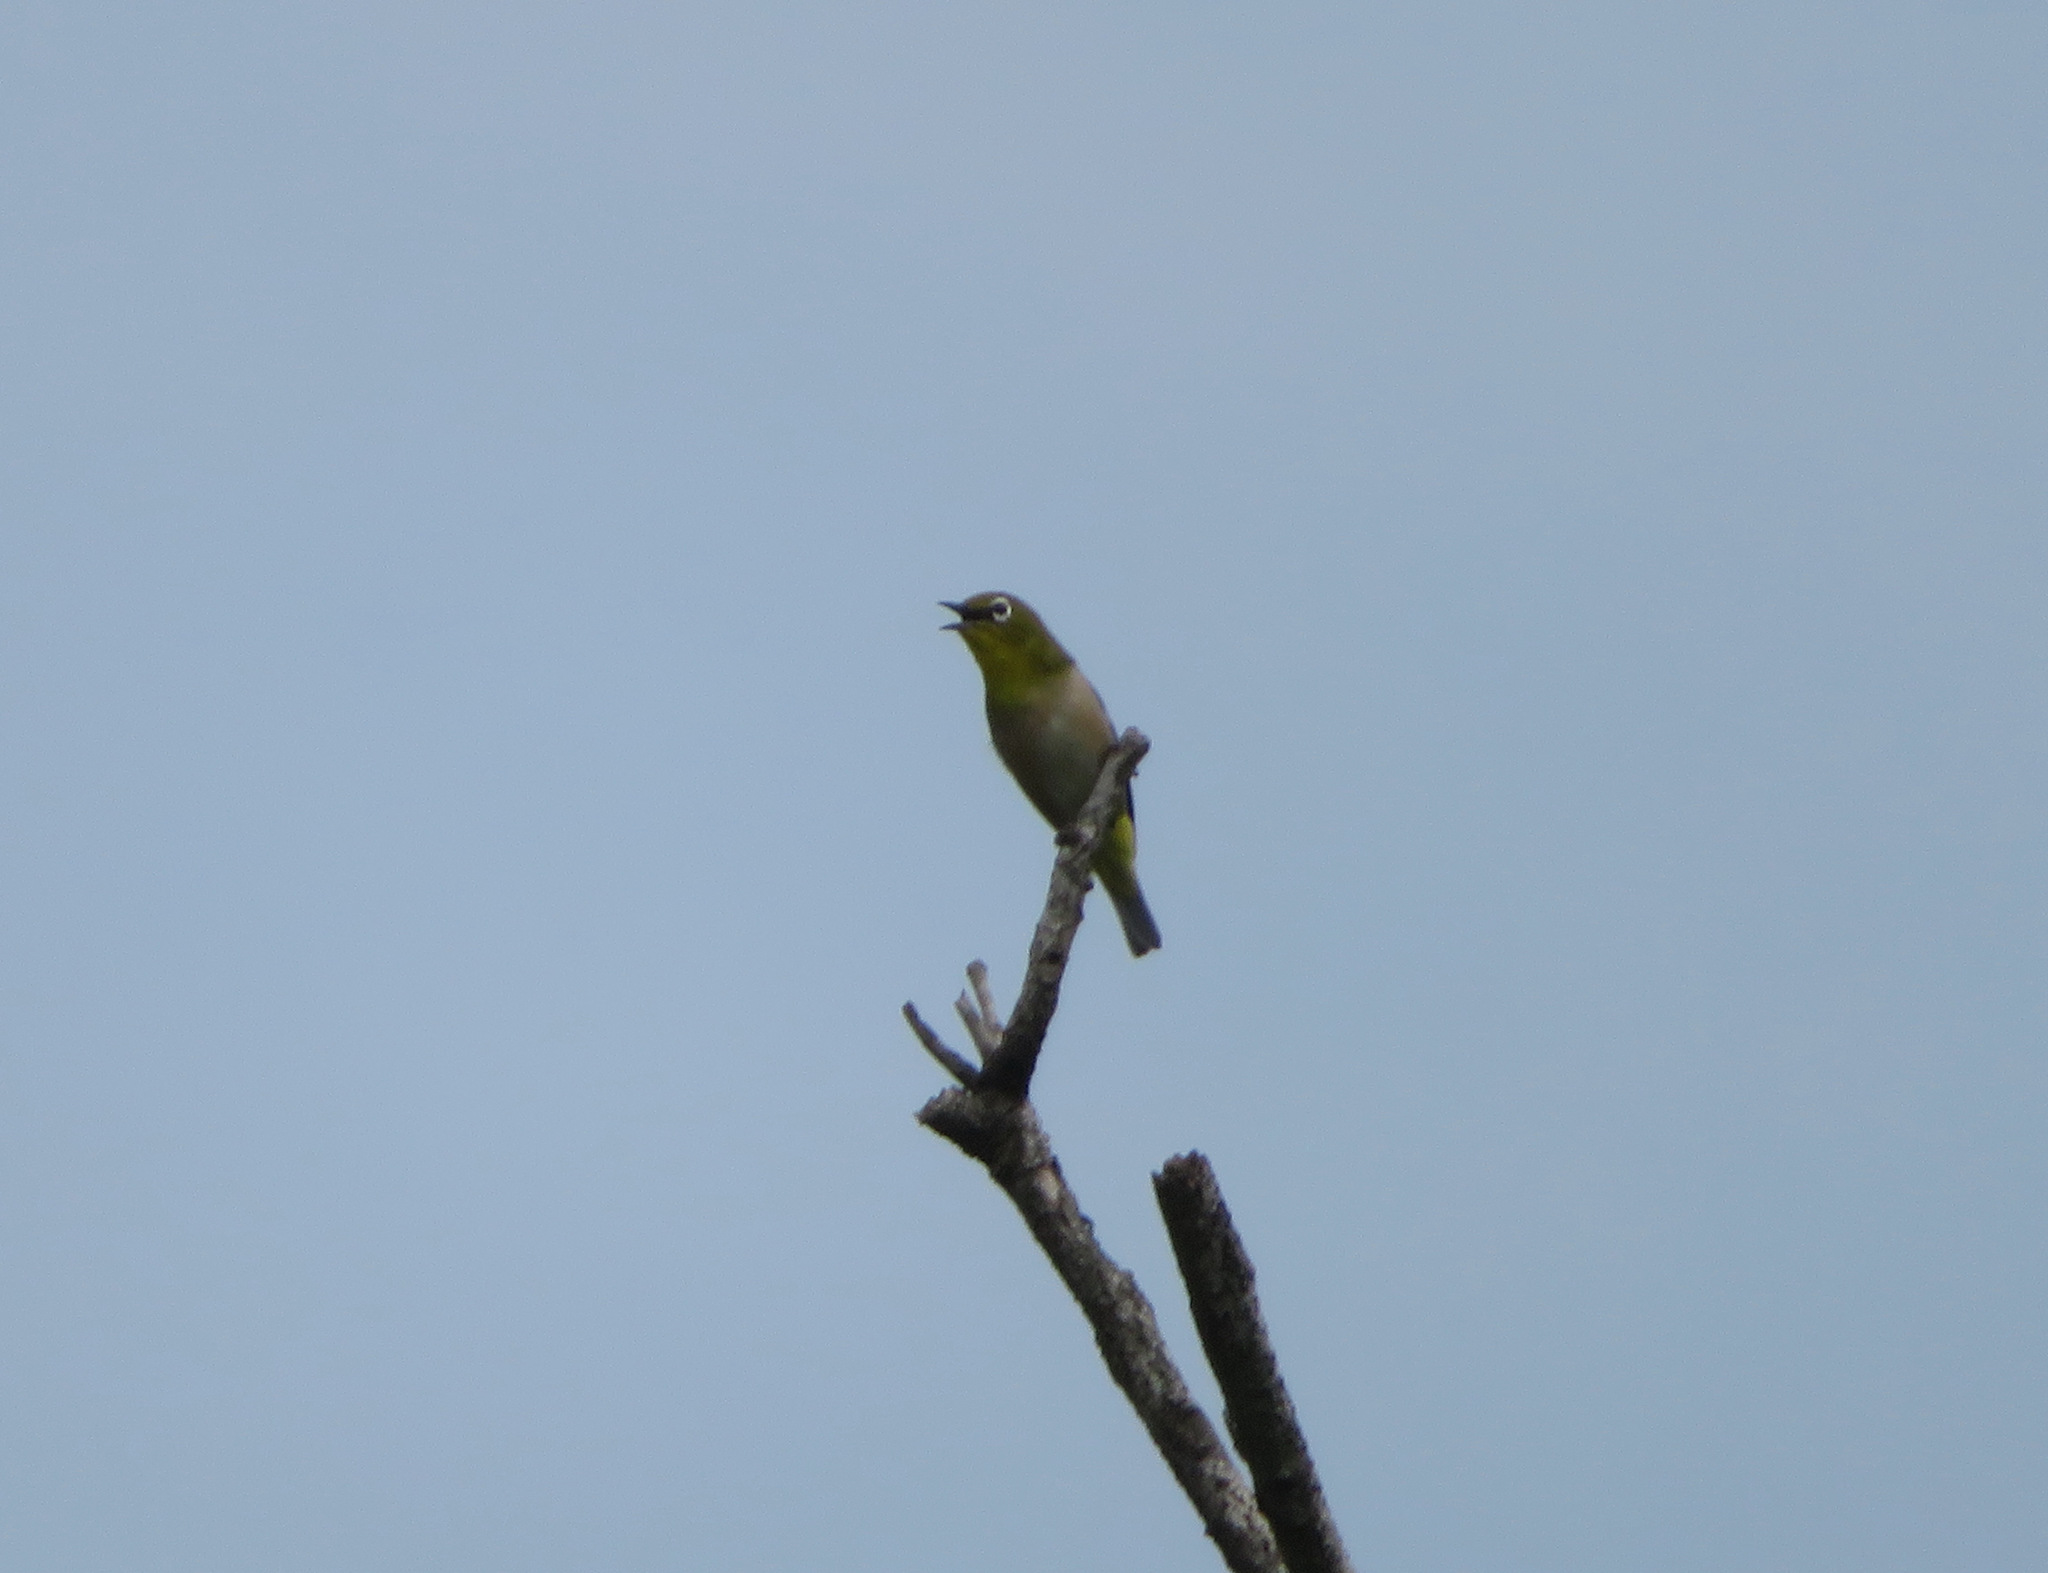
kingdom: Animalia
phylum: Chordata
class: Aves
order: Passeriformes
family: Zosteropidae
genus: Zosterops
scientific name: Zosterops japonicus
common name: Japanese white-eye
